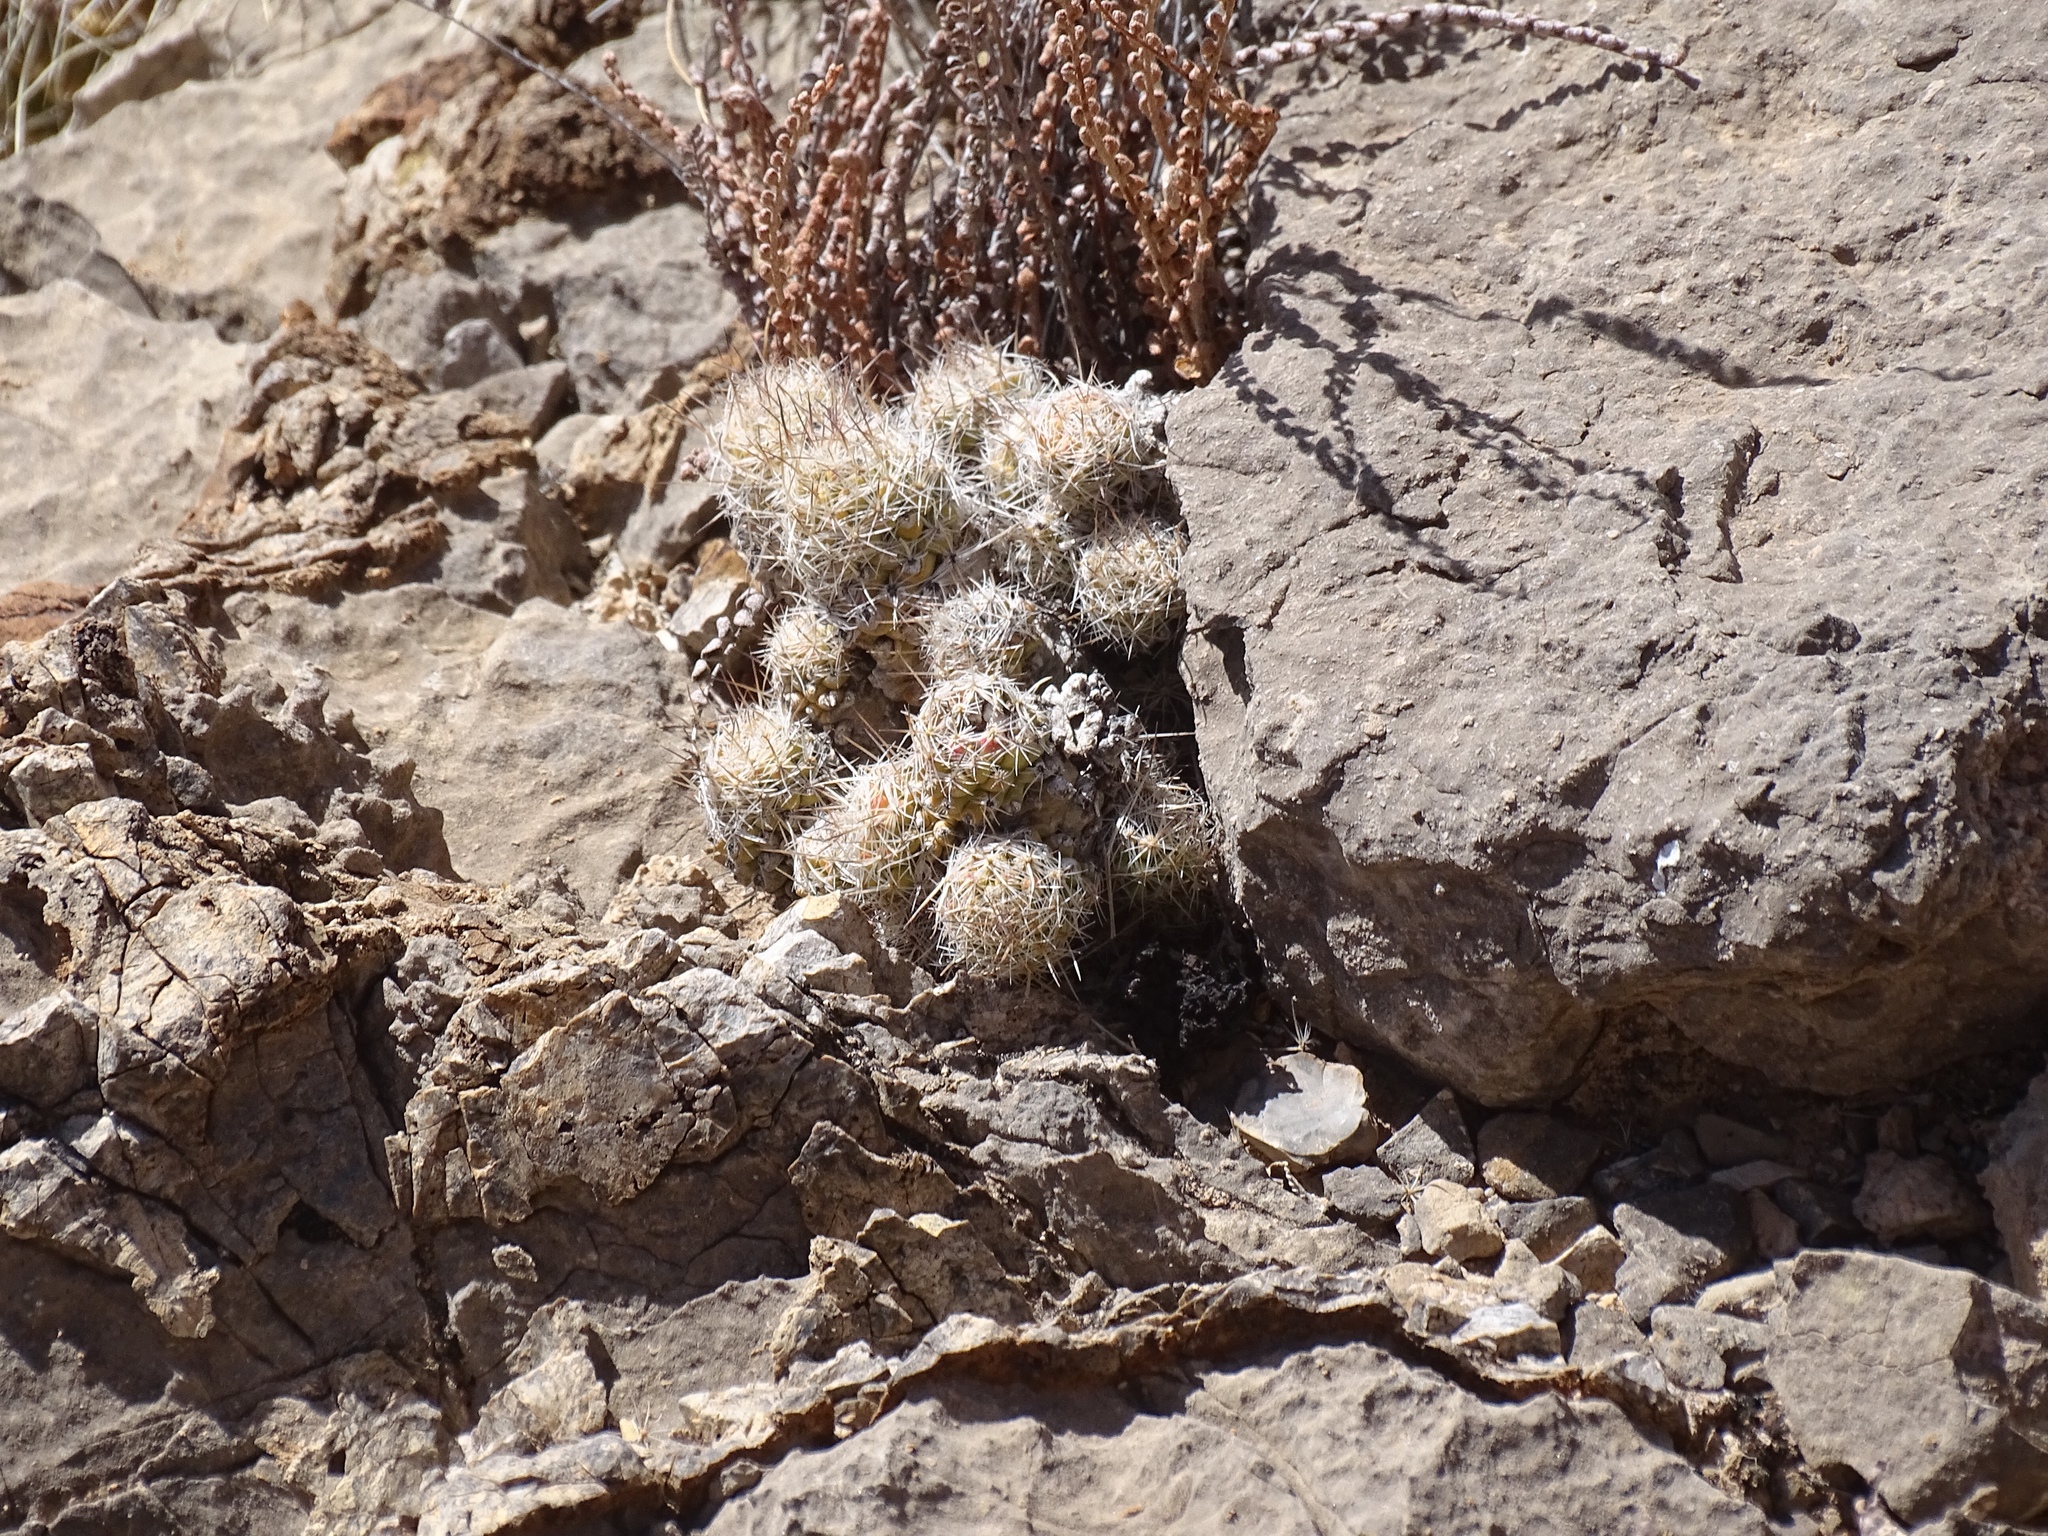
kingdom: Plantae
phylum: Tracheophyta
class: Magnoliopsida
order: Caryophyllales
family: Cactaceae
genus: Pelecyphora
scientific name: Pelecyphora tuberculosa
